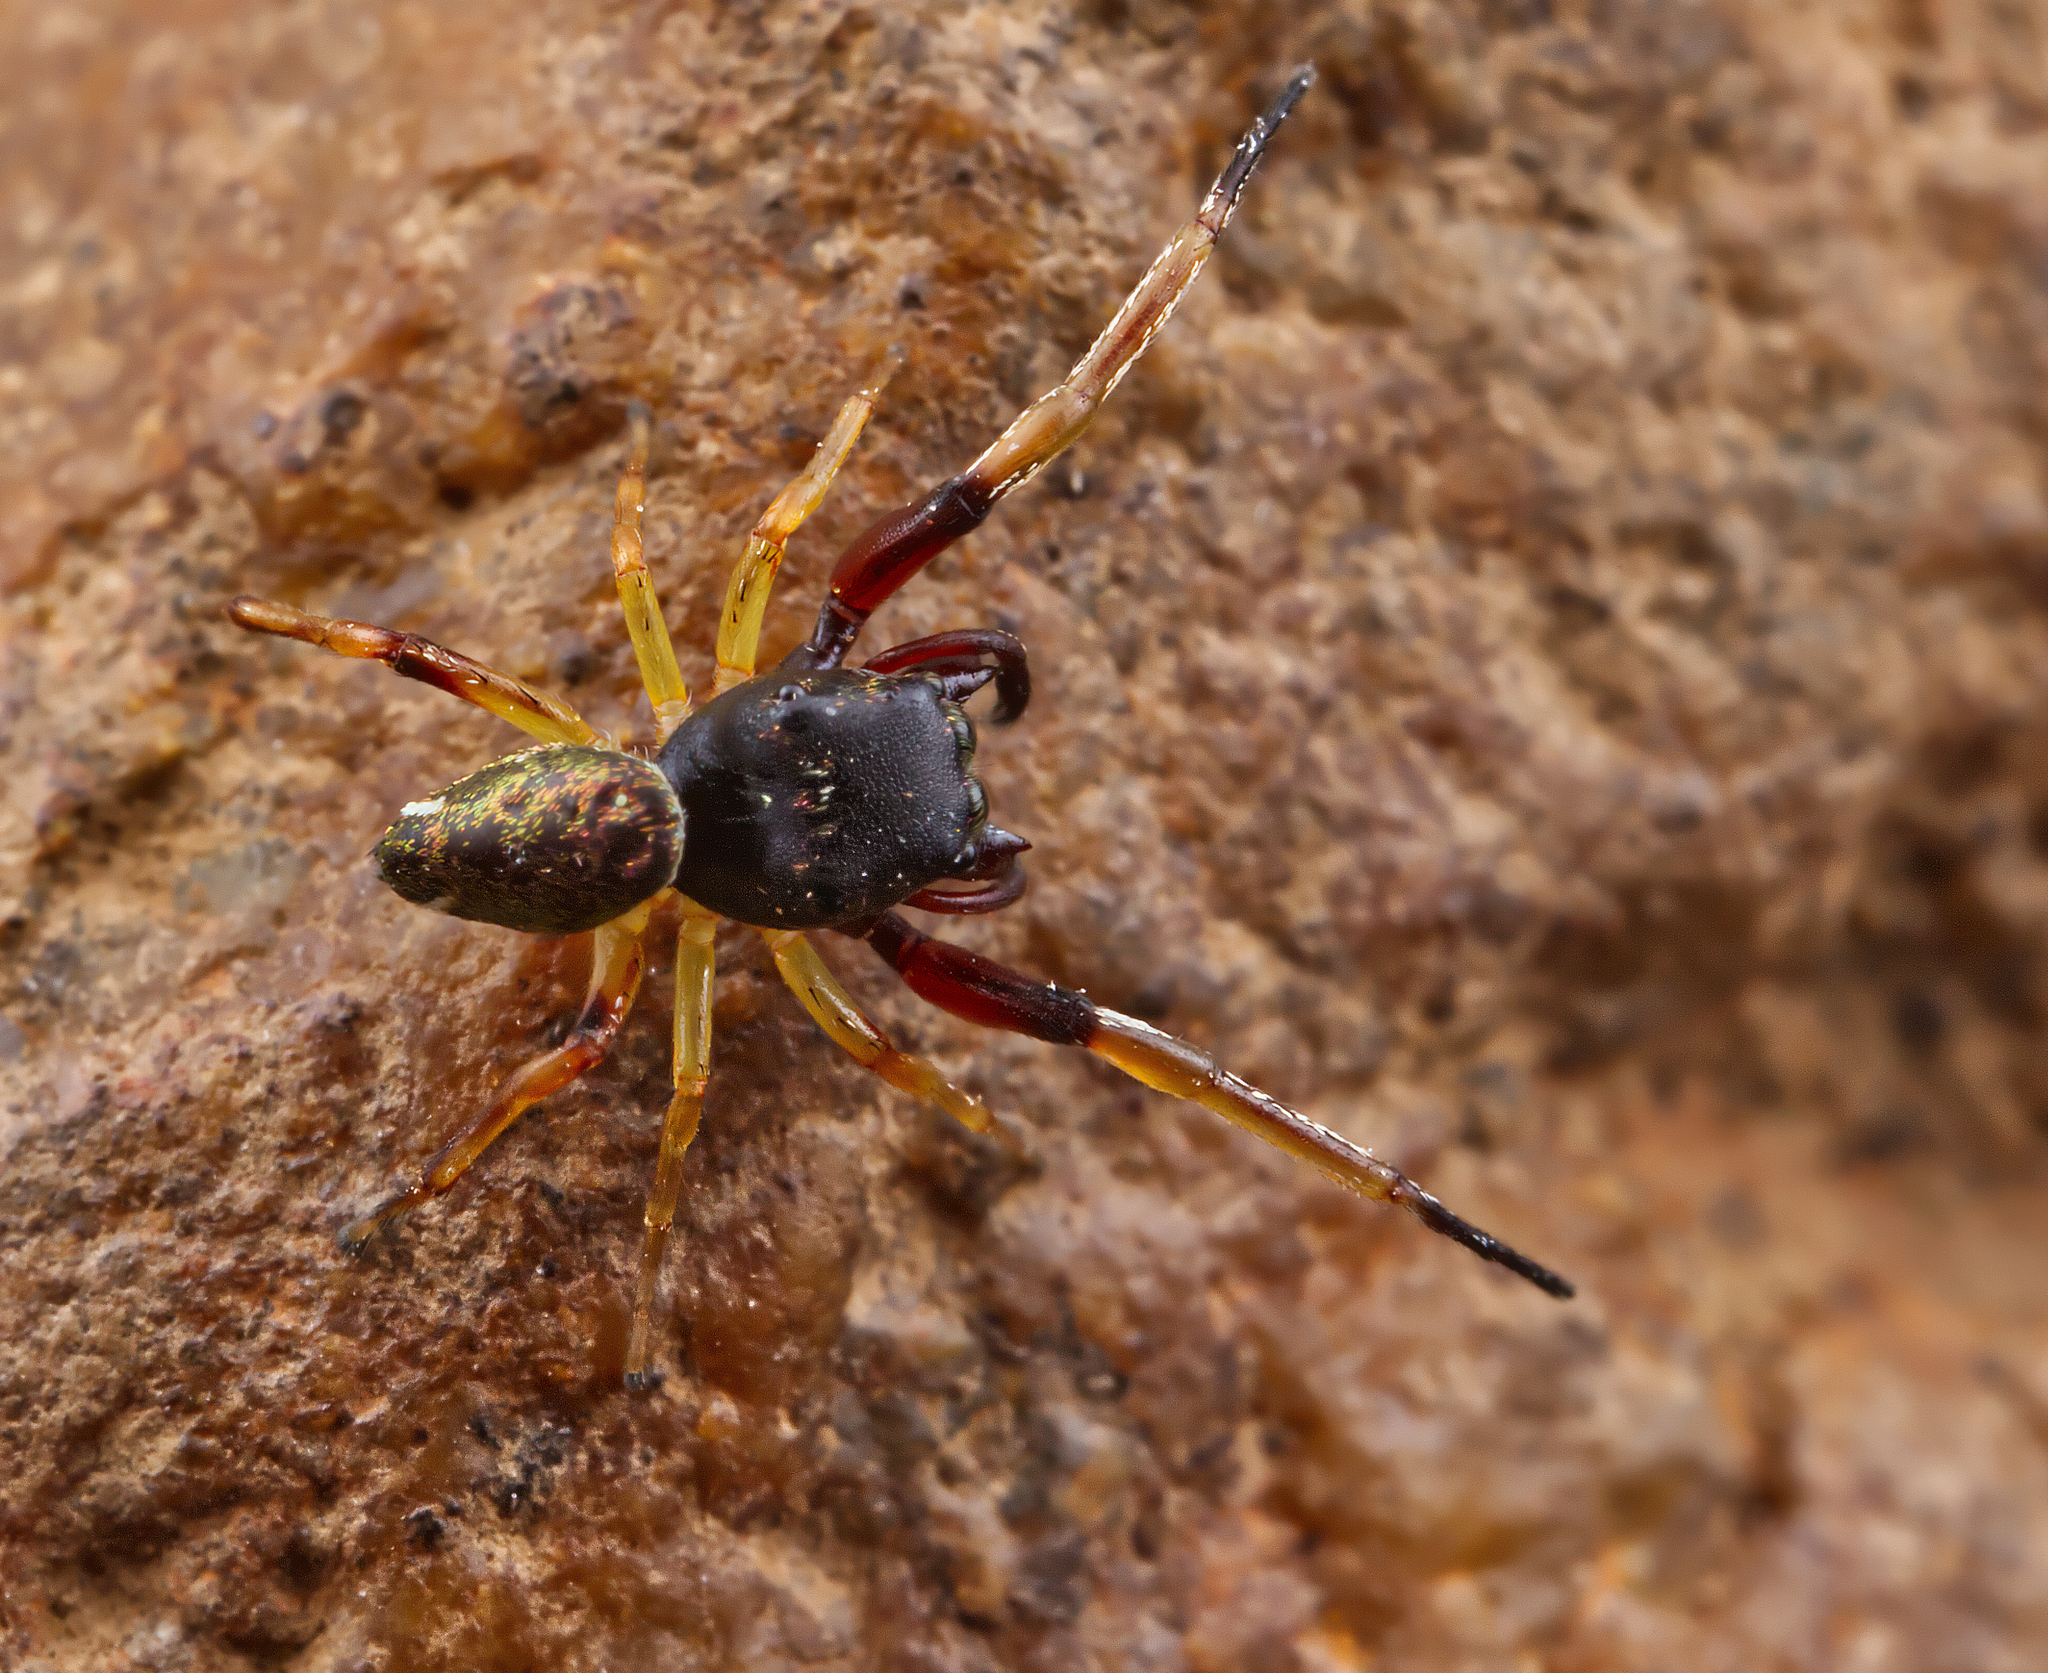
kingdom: Animalia
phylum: Arthropoda
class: Arachnida
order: Araneae
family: Salticidae
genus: Zygoballus
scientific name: Zygoballus rufipes
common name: Jumping spiders
